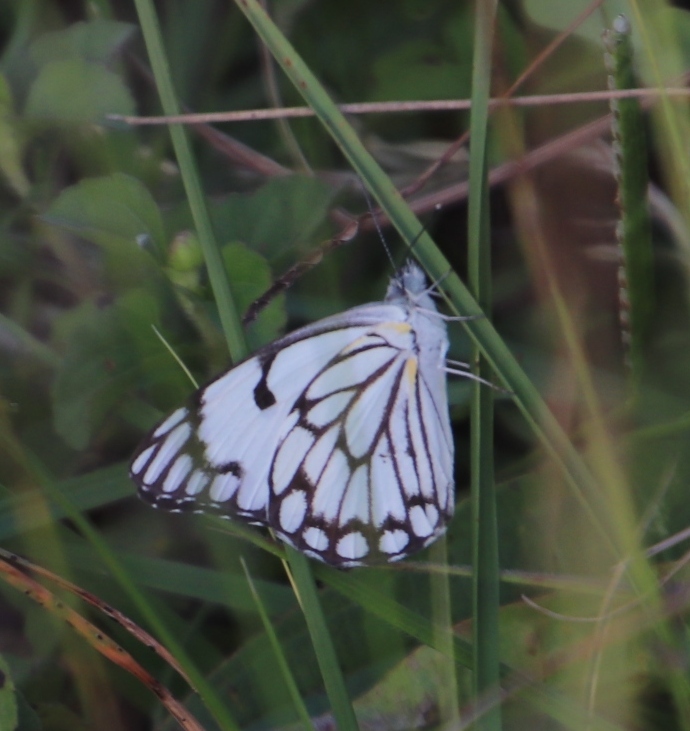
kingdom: Animalia
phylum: Arthropoda
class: Insecta
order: Lepidoptera
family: Pieridae
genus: Belenois
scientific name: Belenois aurota
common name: Brown-veined white
